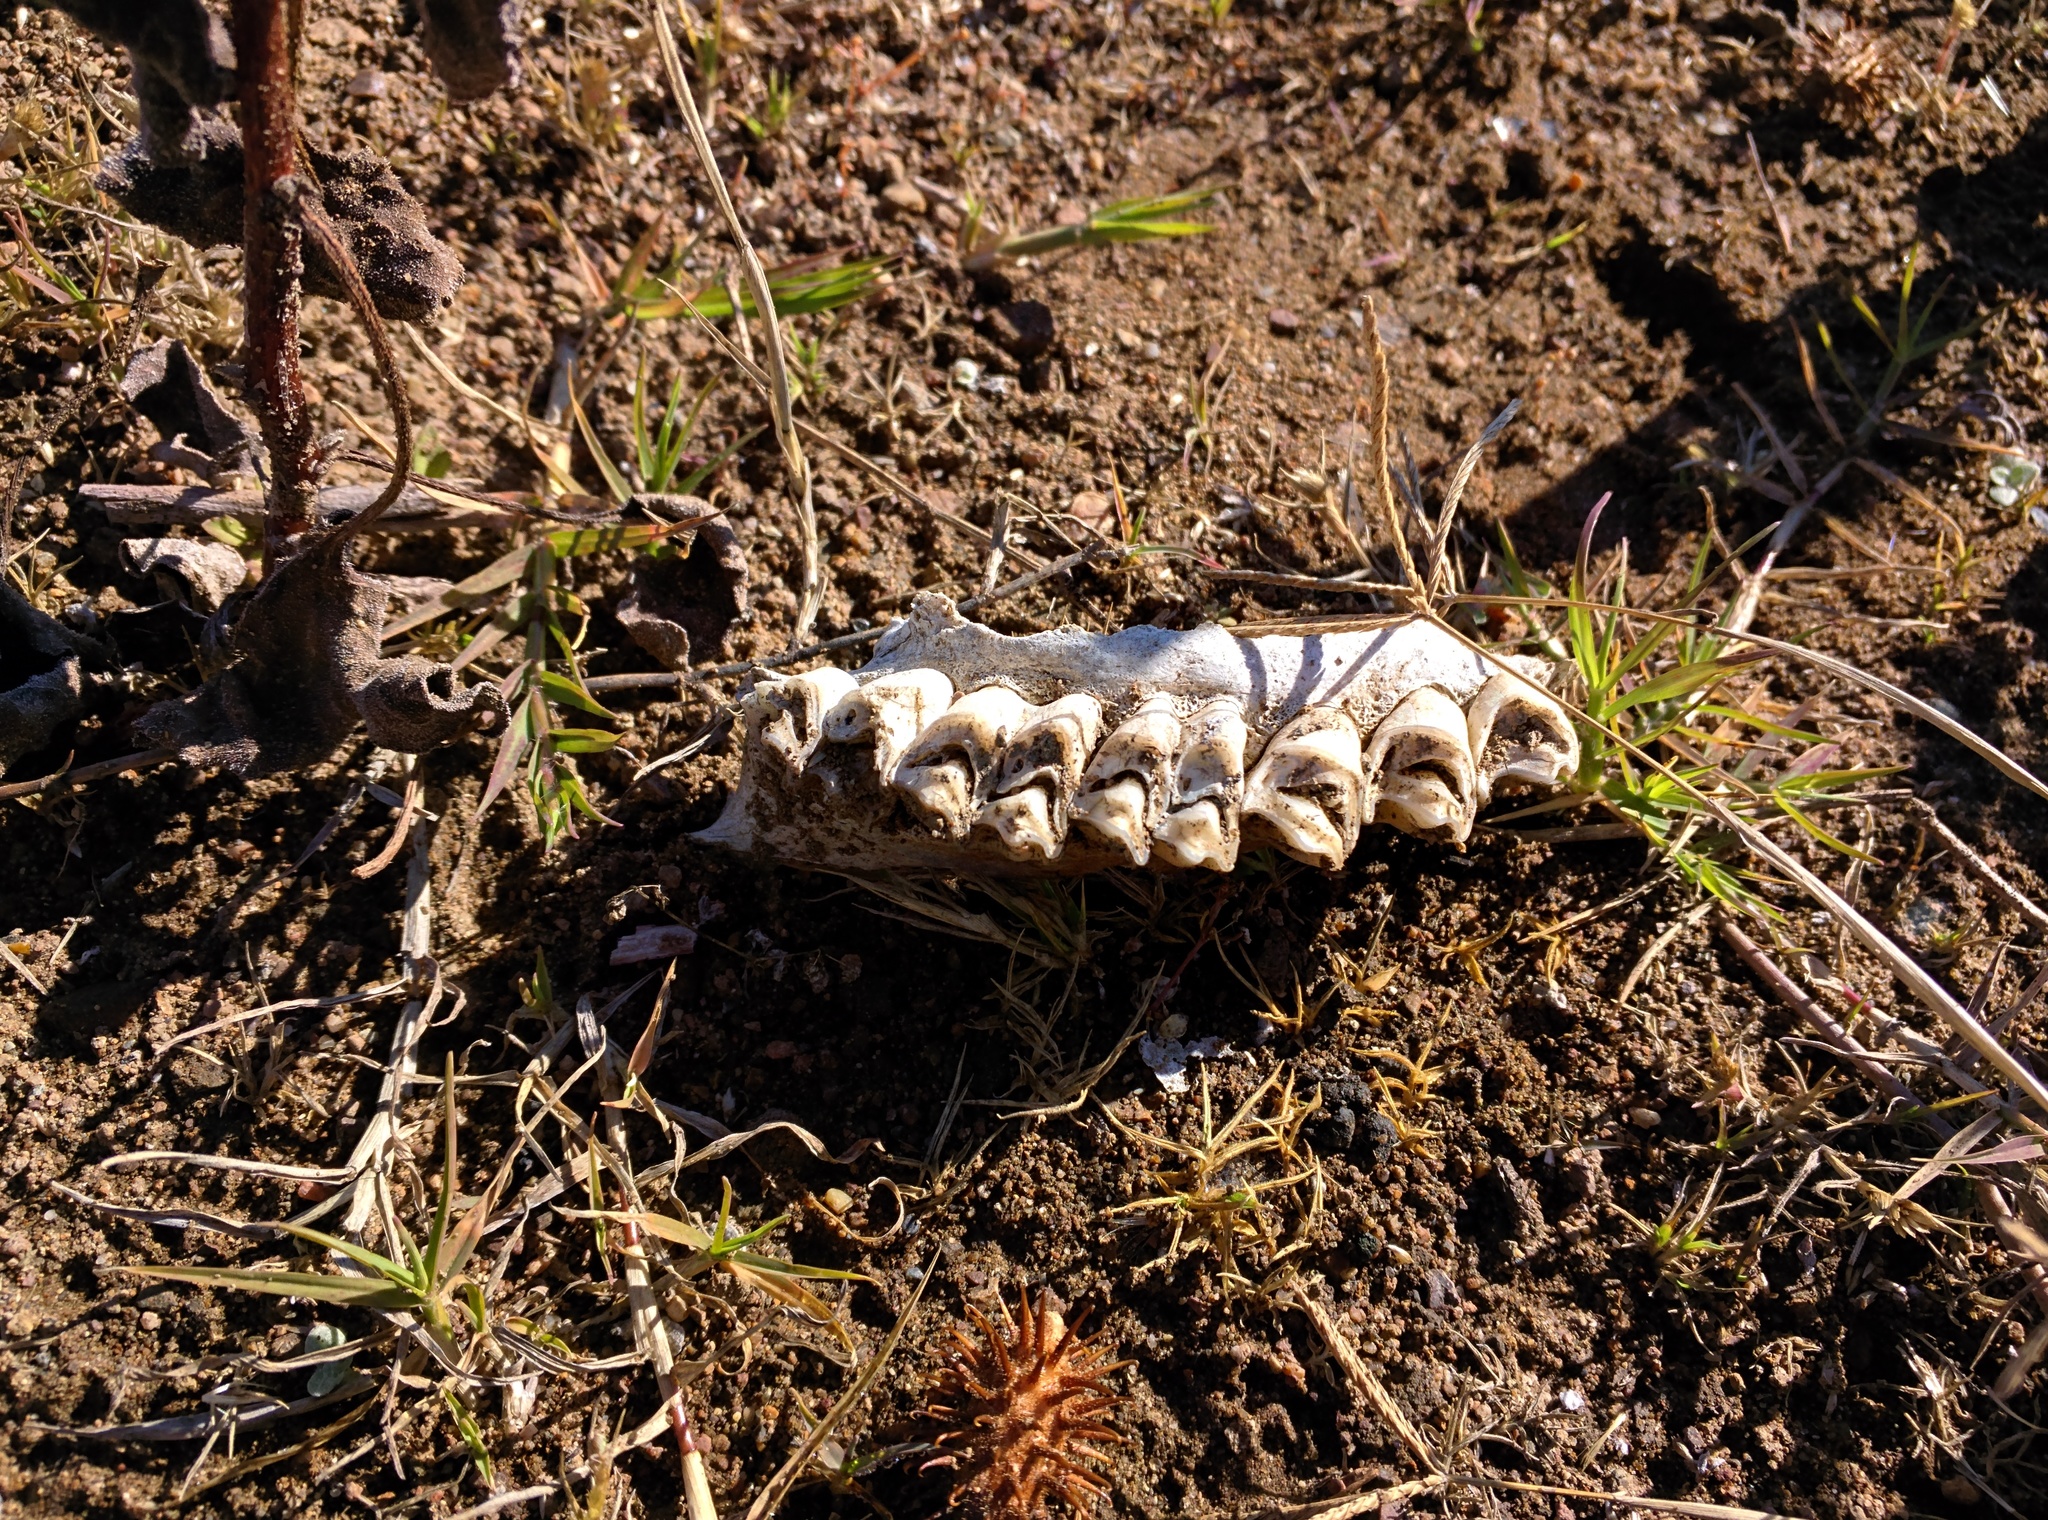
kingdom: Animalia
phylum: Chordata
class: Mammalia
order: Artiodactyla
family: Cervidae
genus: Odocoileus
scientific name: Odocoileus hemionus
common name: Mule deer
